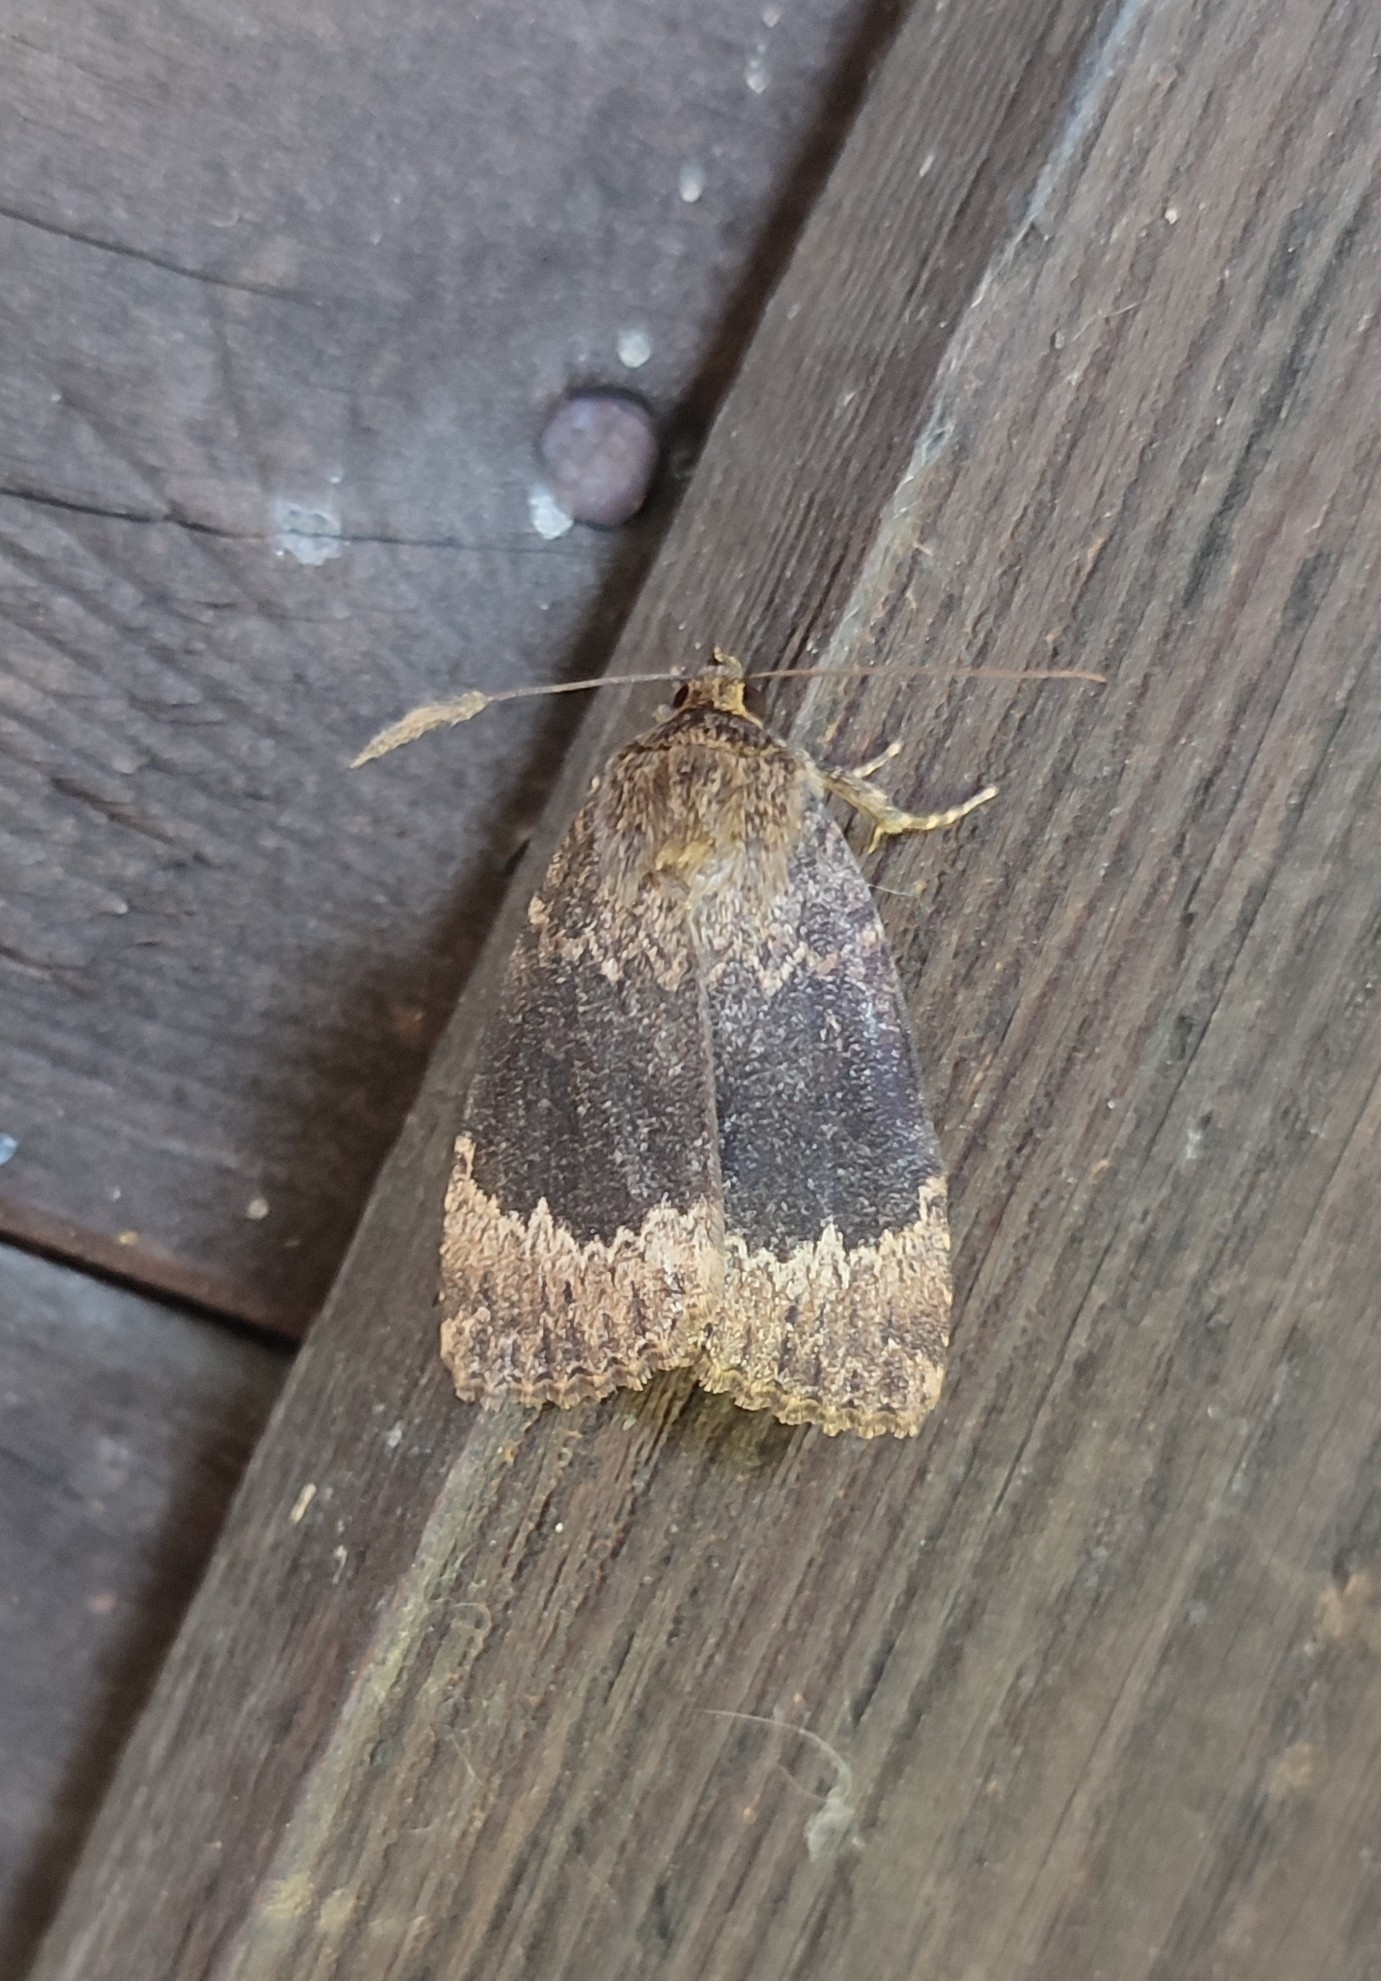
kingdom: Animalia
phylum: Arthropoda
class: Insecta
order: Lepidoptera
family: Noctuidae
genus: Amphipyra
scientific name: Amphipyra perflua
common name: Larger pale-tipped black moth
